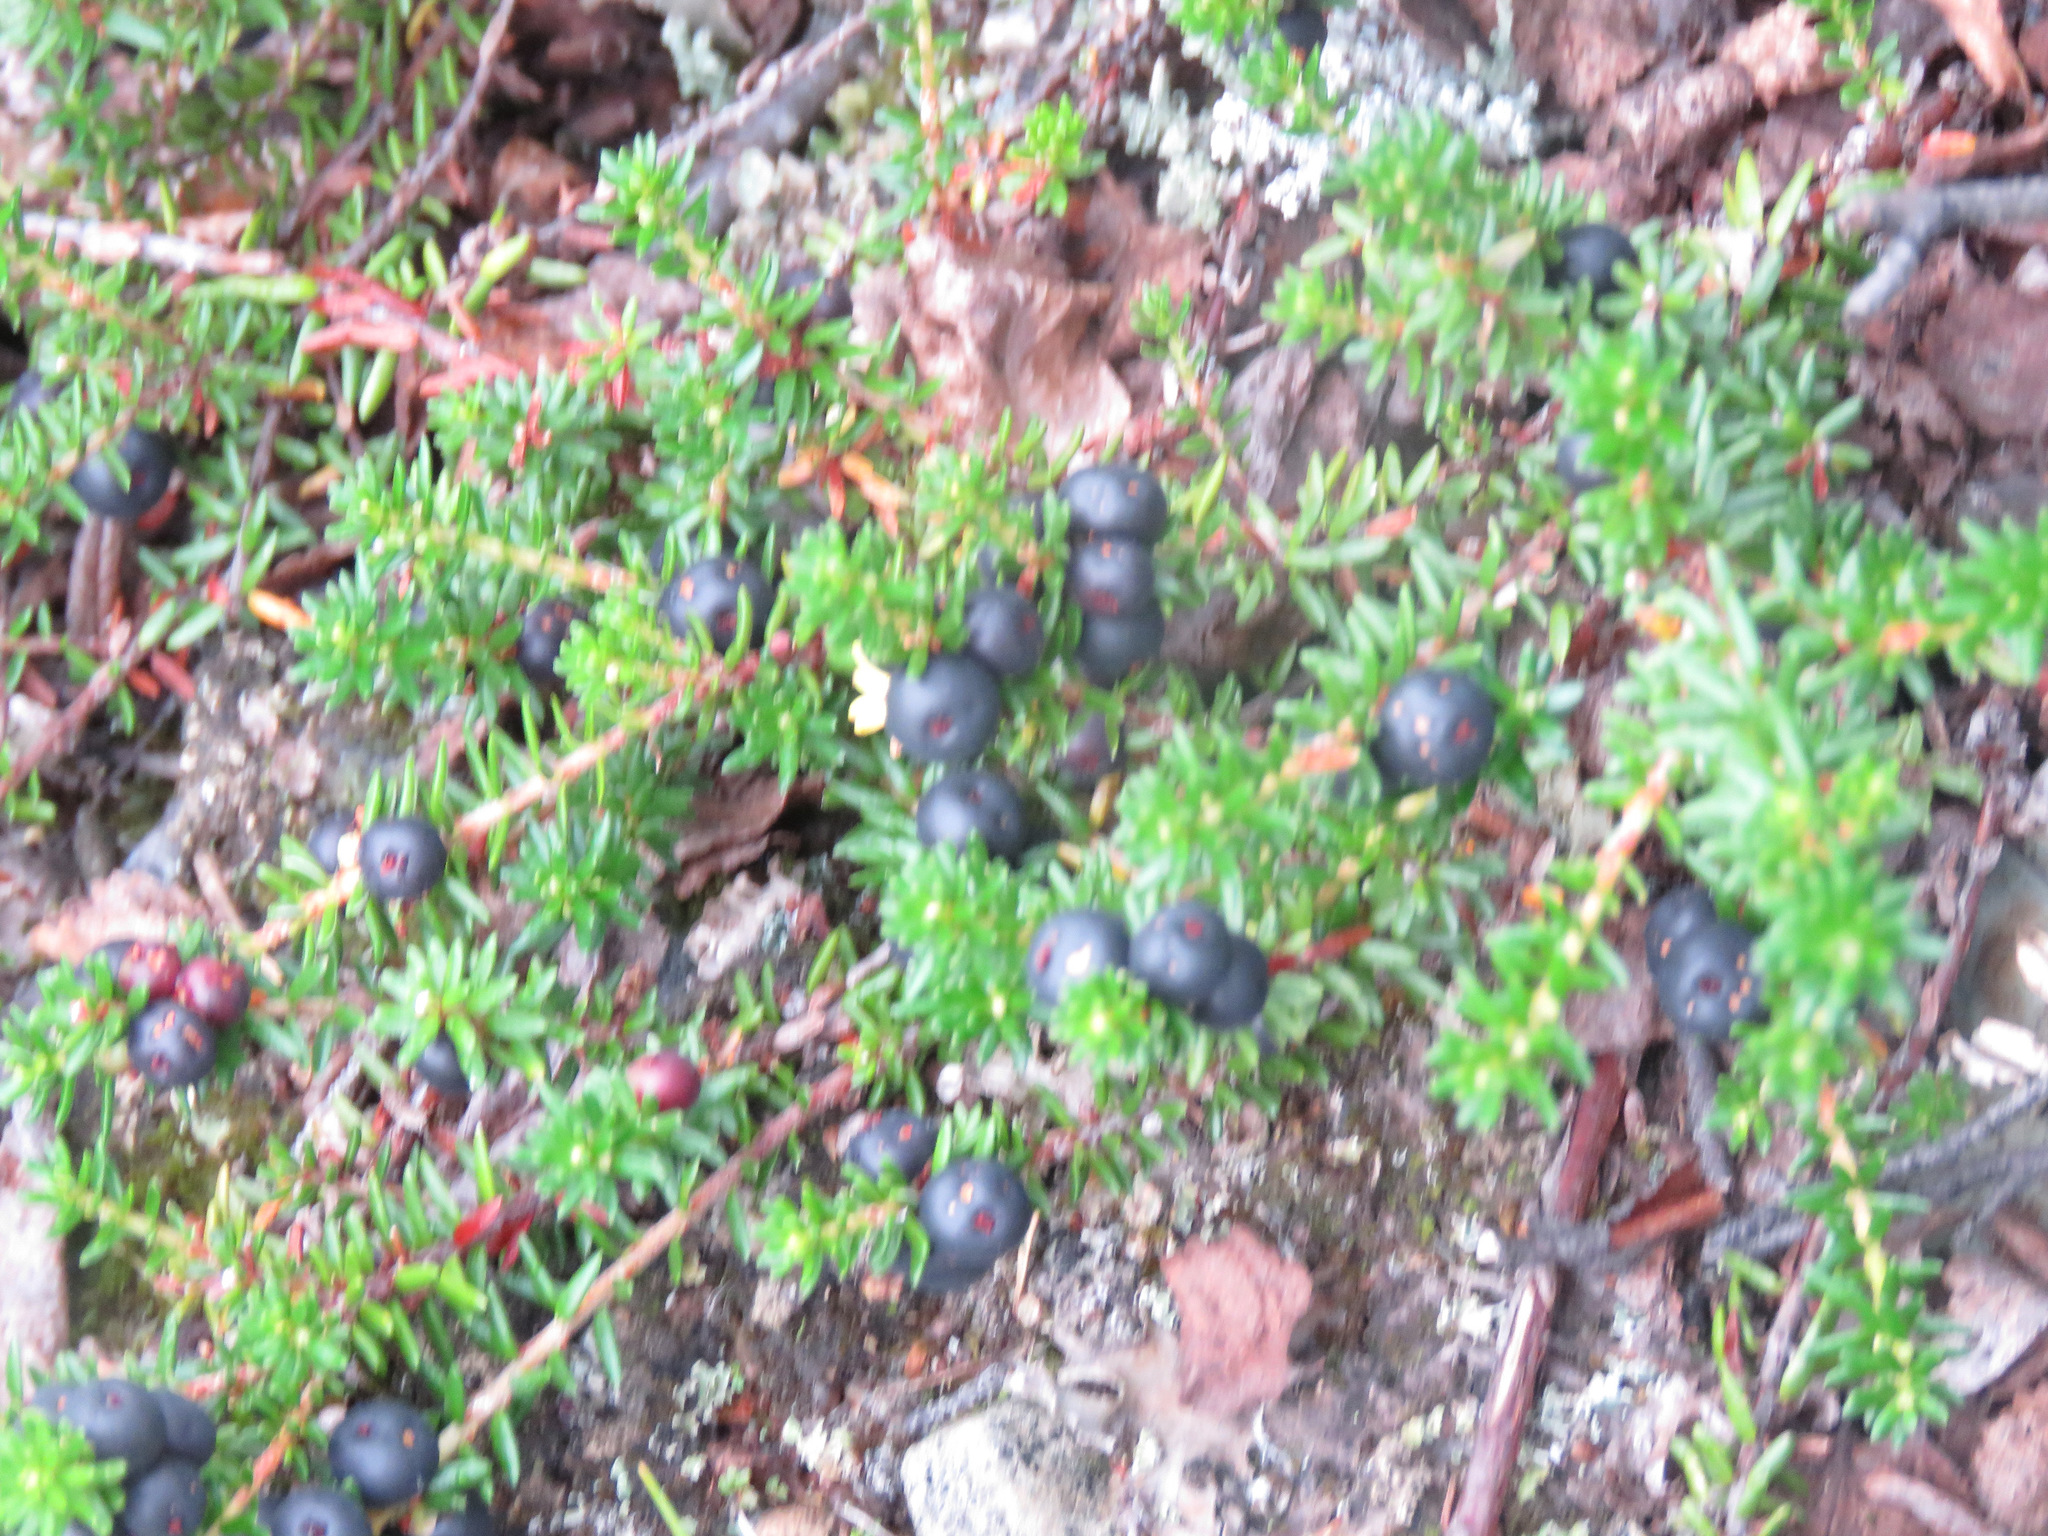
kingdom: Plantae
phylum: Tracheophyta
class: Magnoliopsida
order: Ericales
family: Ericaceae
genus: Empetrum
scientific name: Empetrum nigrum
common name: Black crowberry
